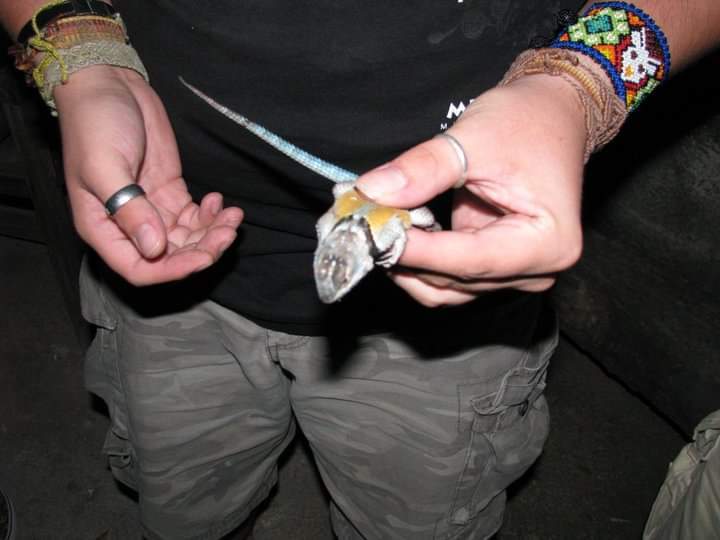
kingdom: Animalia
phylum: Chordata
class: Squamata
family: Phrynosomatidae
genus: Sceloporus
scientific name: Sceloporus minor
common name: Minor lizard
